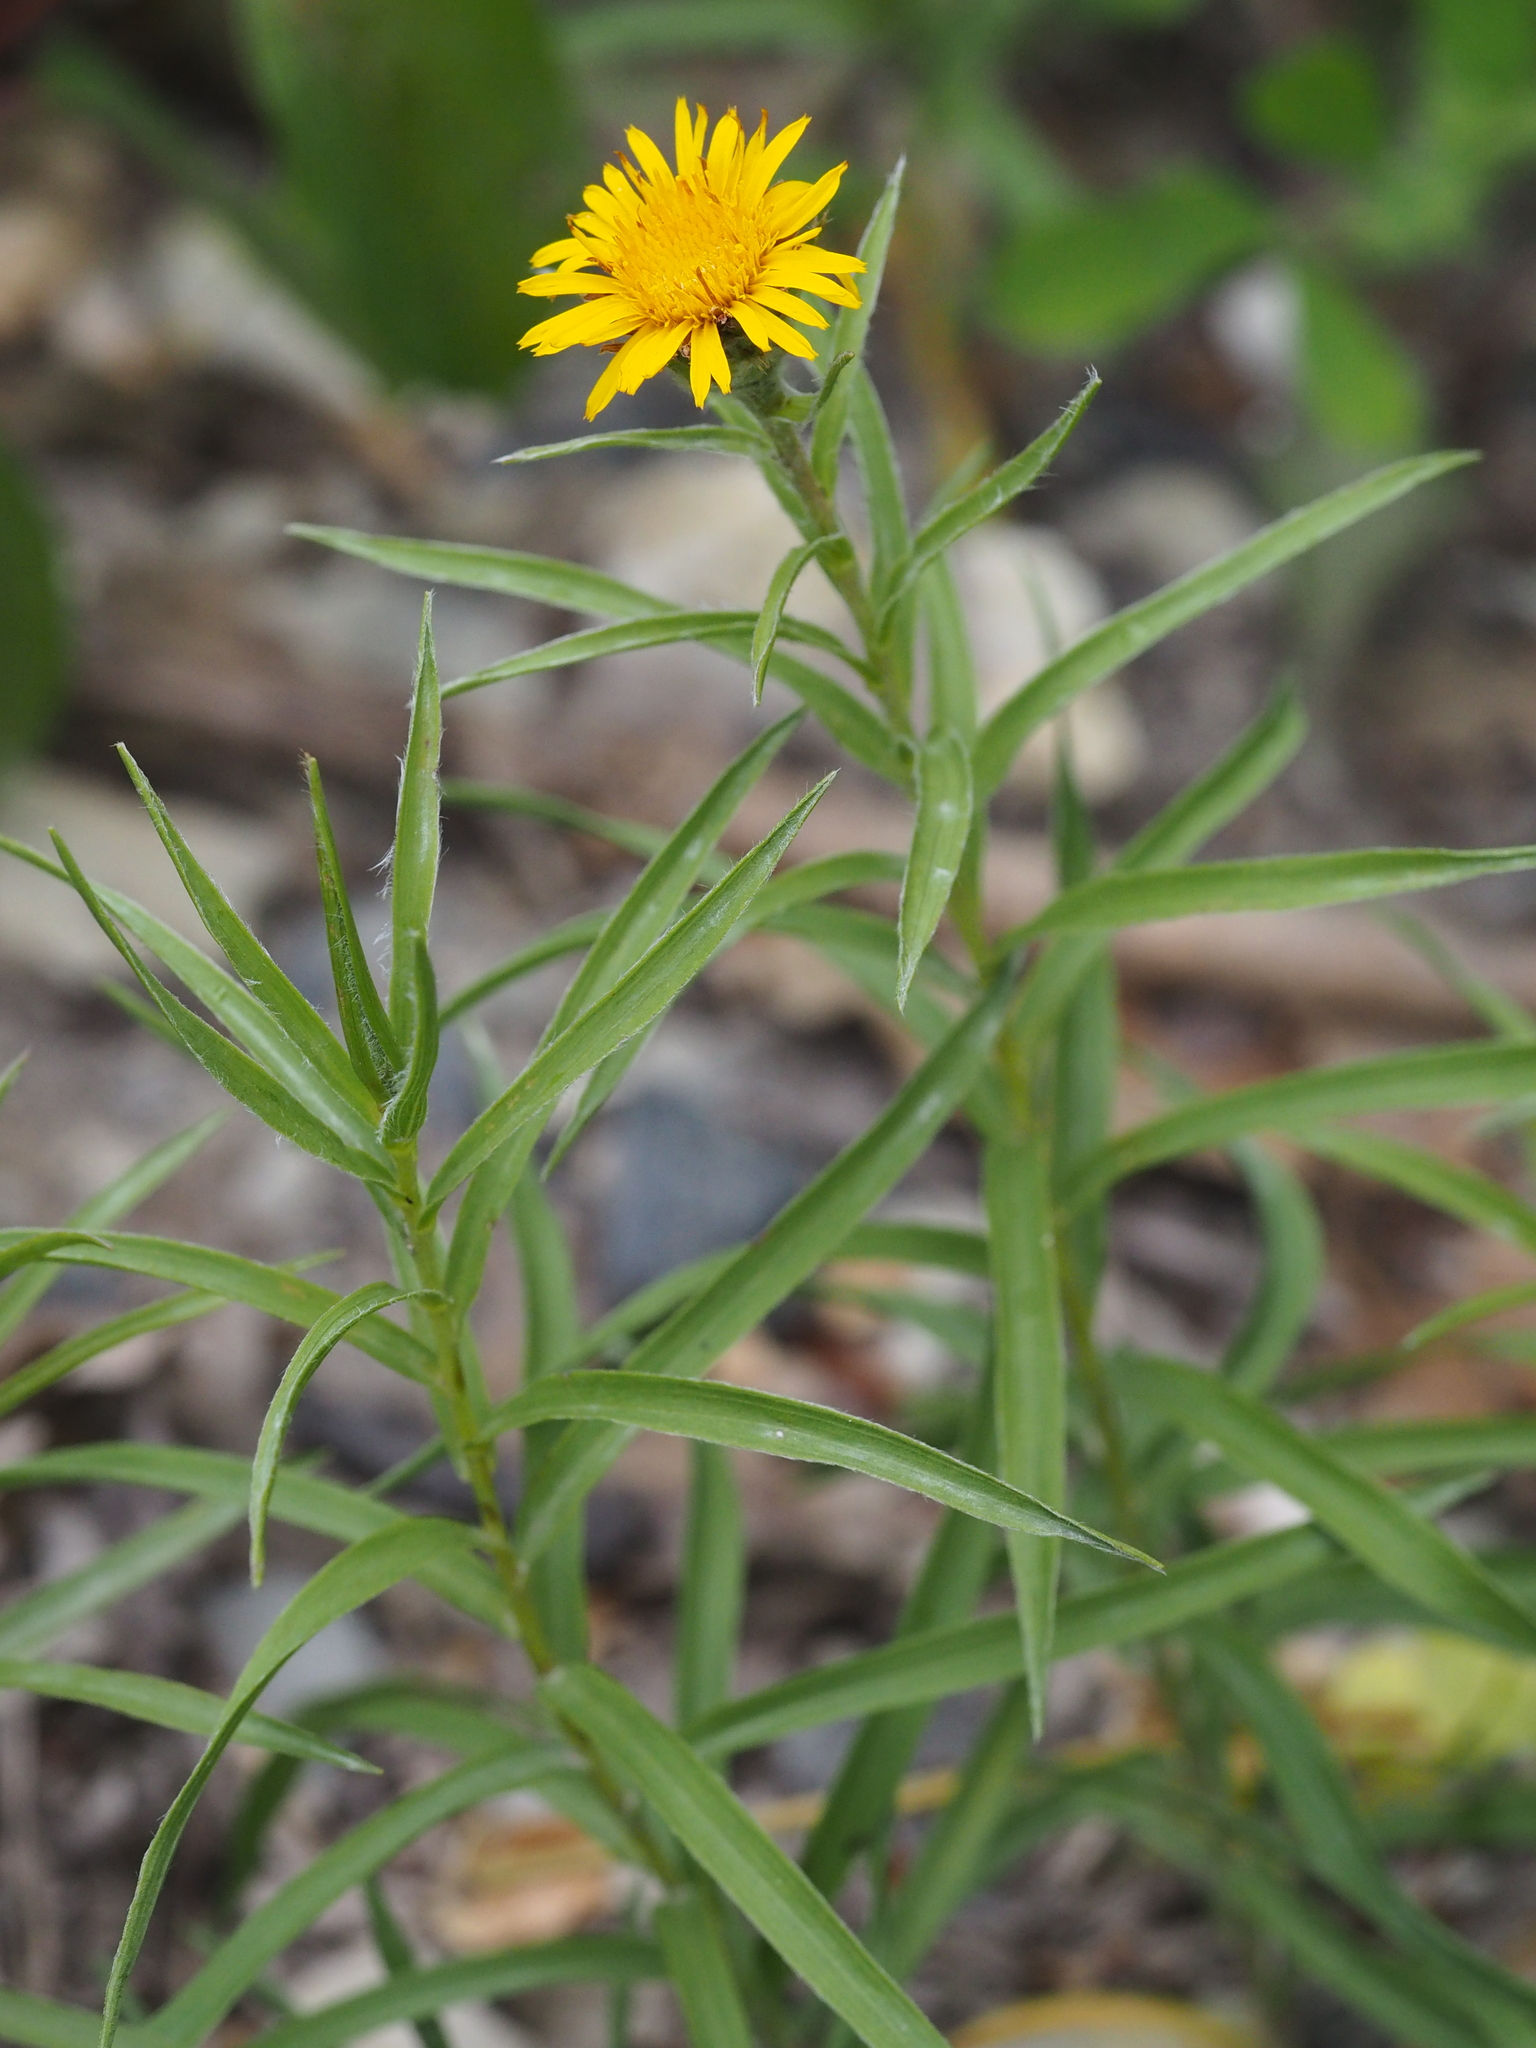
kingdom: Plantae
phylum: Tracheophyta
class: Magnoliopsida
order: Asterales
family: Asteraceae
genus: Pentanema
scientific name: Pentanema ensifolium
